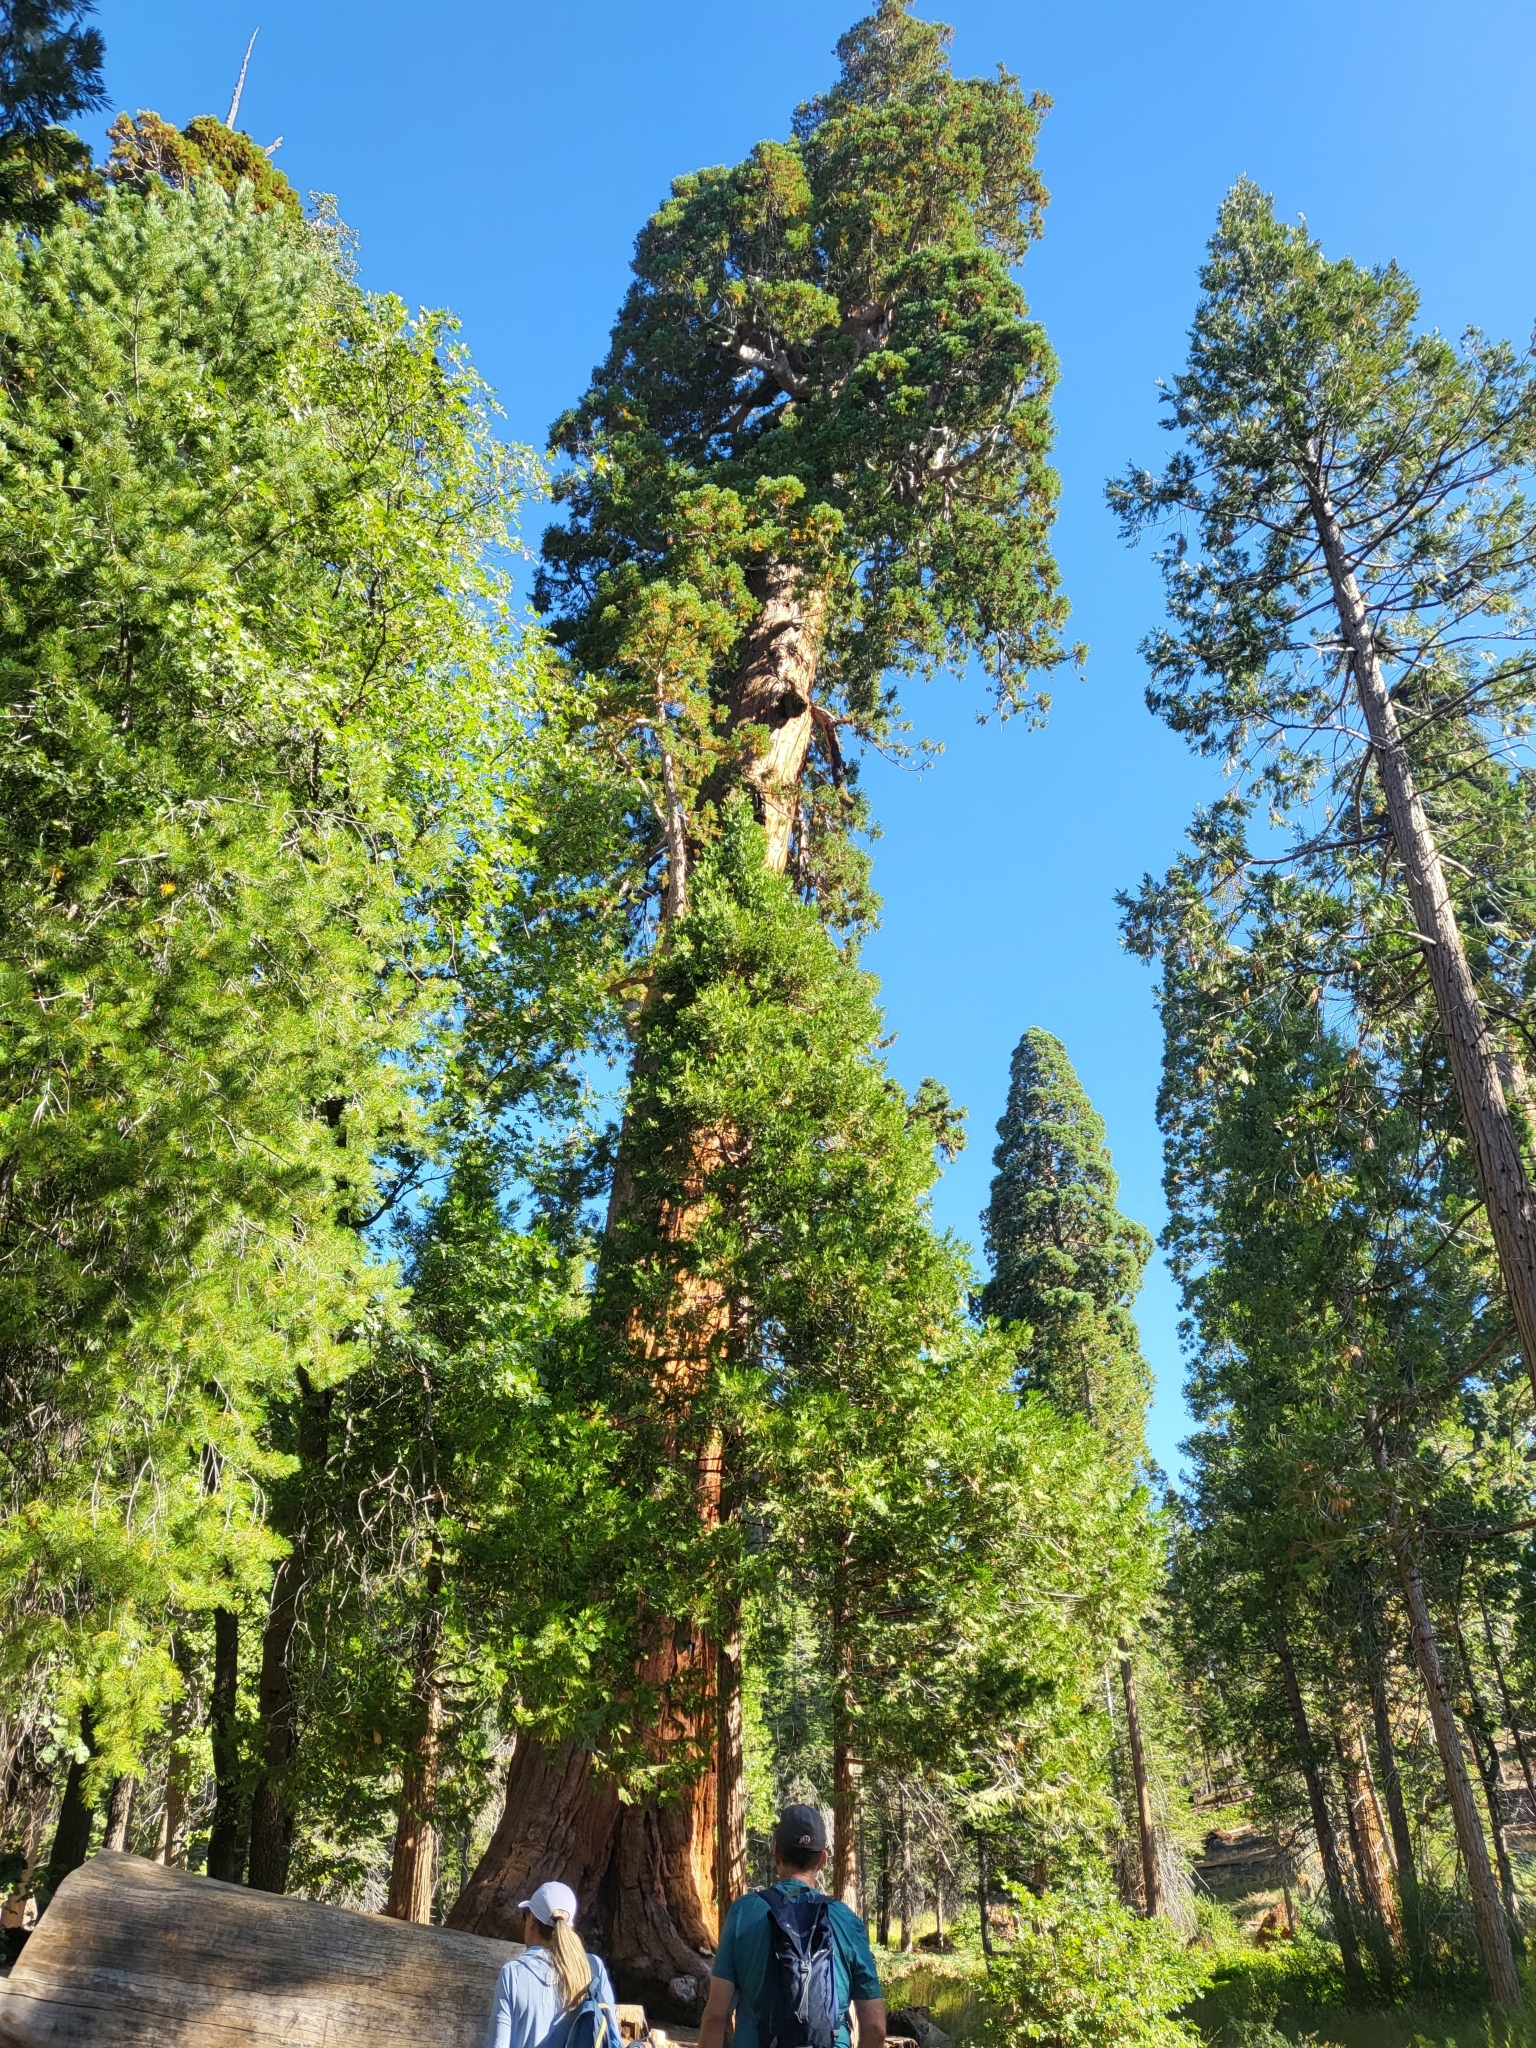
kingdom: Plantae
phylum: Tracheophyta
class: Pinopsida
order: Pinales
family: Cupressaceae
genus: Sequoiadendron
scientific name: Sequoiadendron giganteum
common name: Wellingtonia
